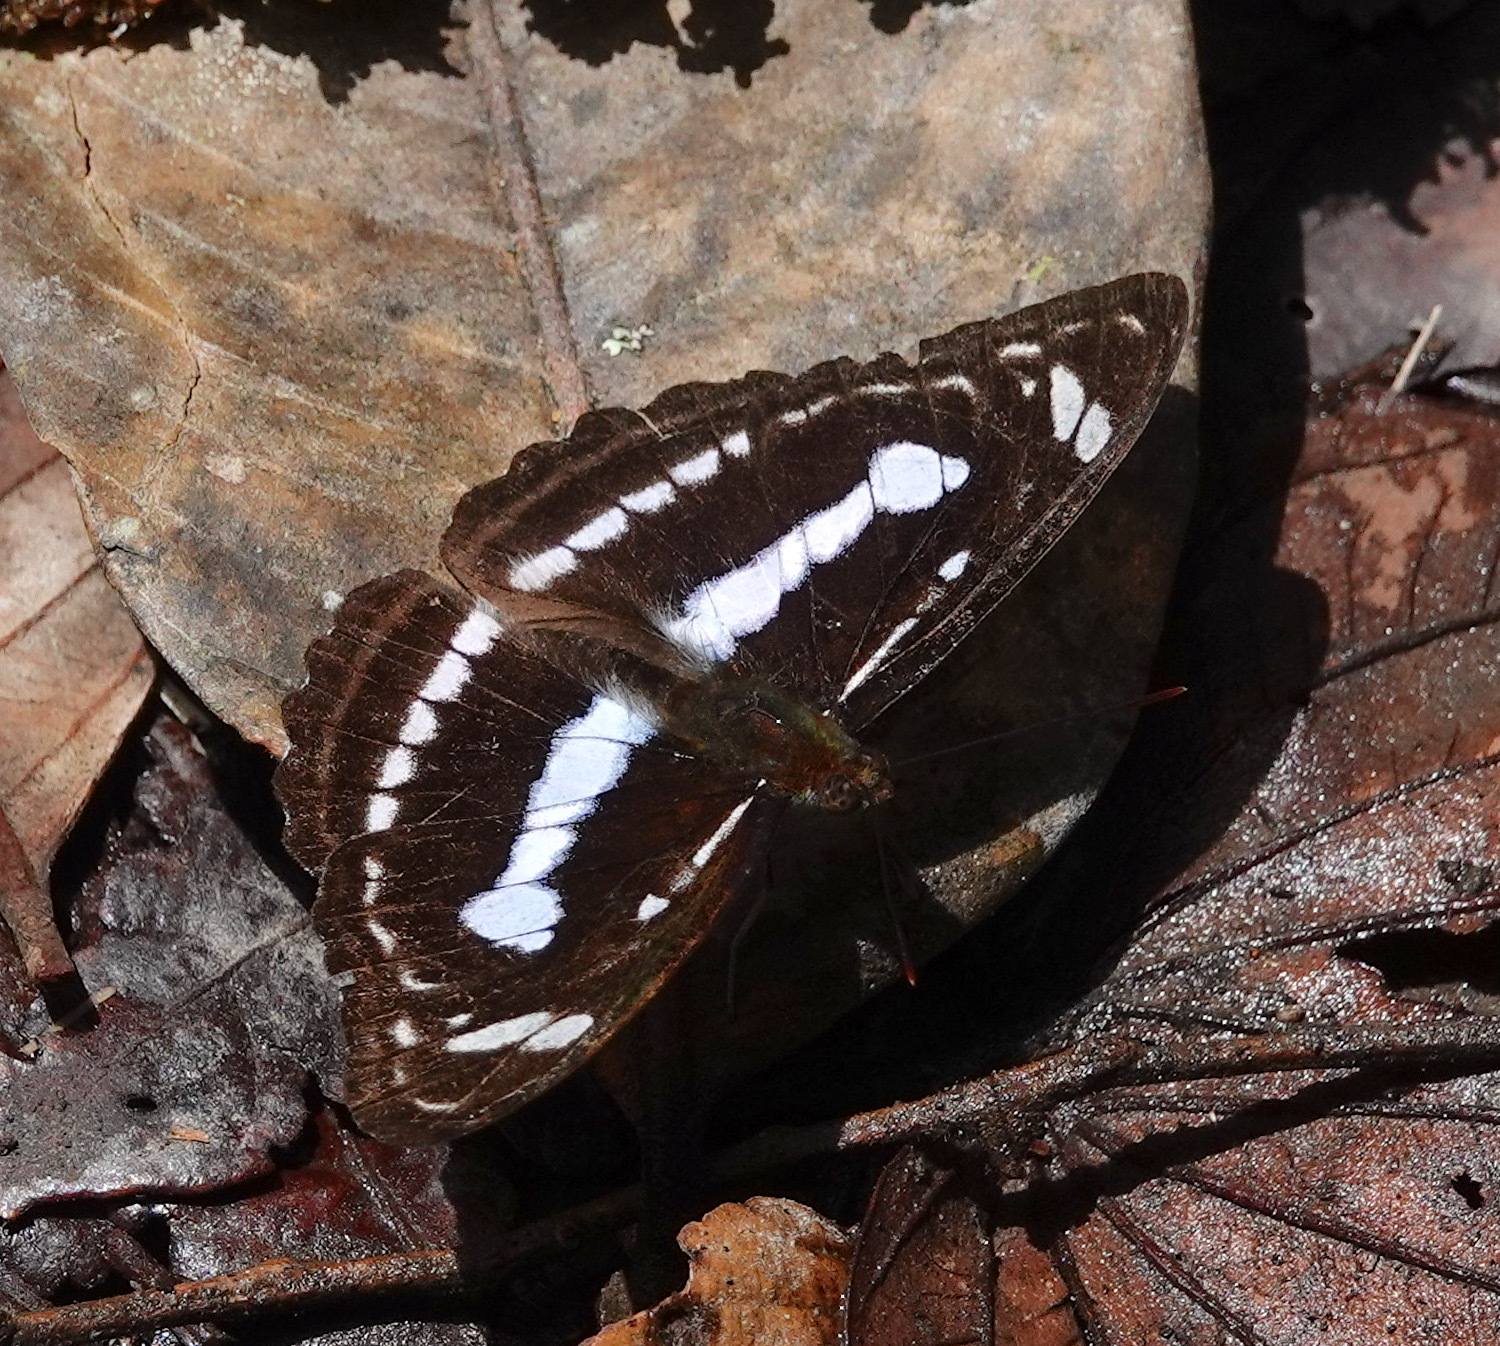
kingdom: Animalia
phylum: Arthropoda
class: Insecta
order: Lepidoptera
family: Nymphalidae
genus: Parathyma
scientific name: Parathyma selenophora
